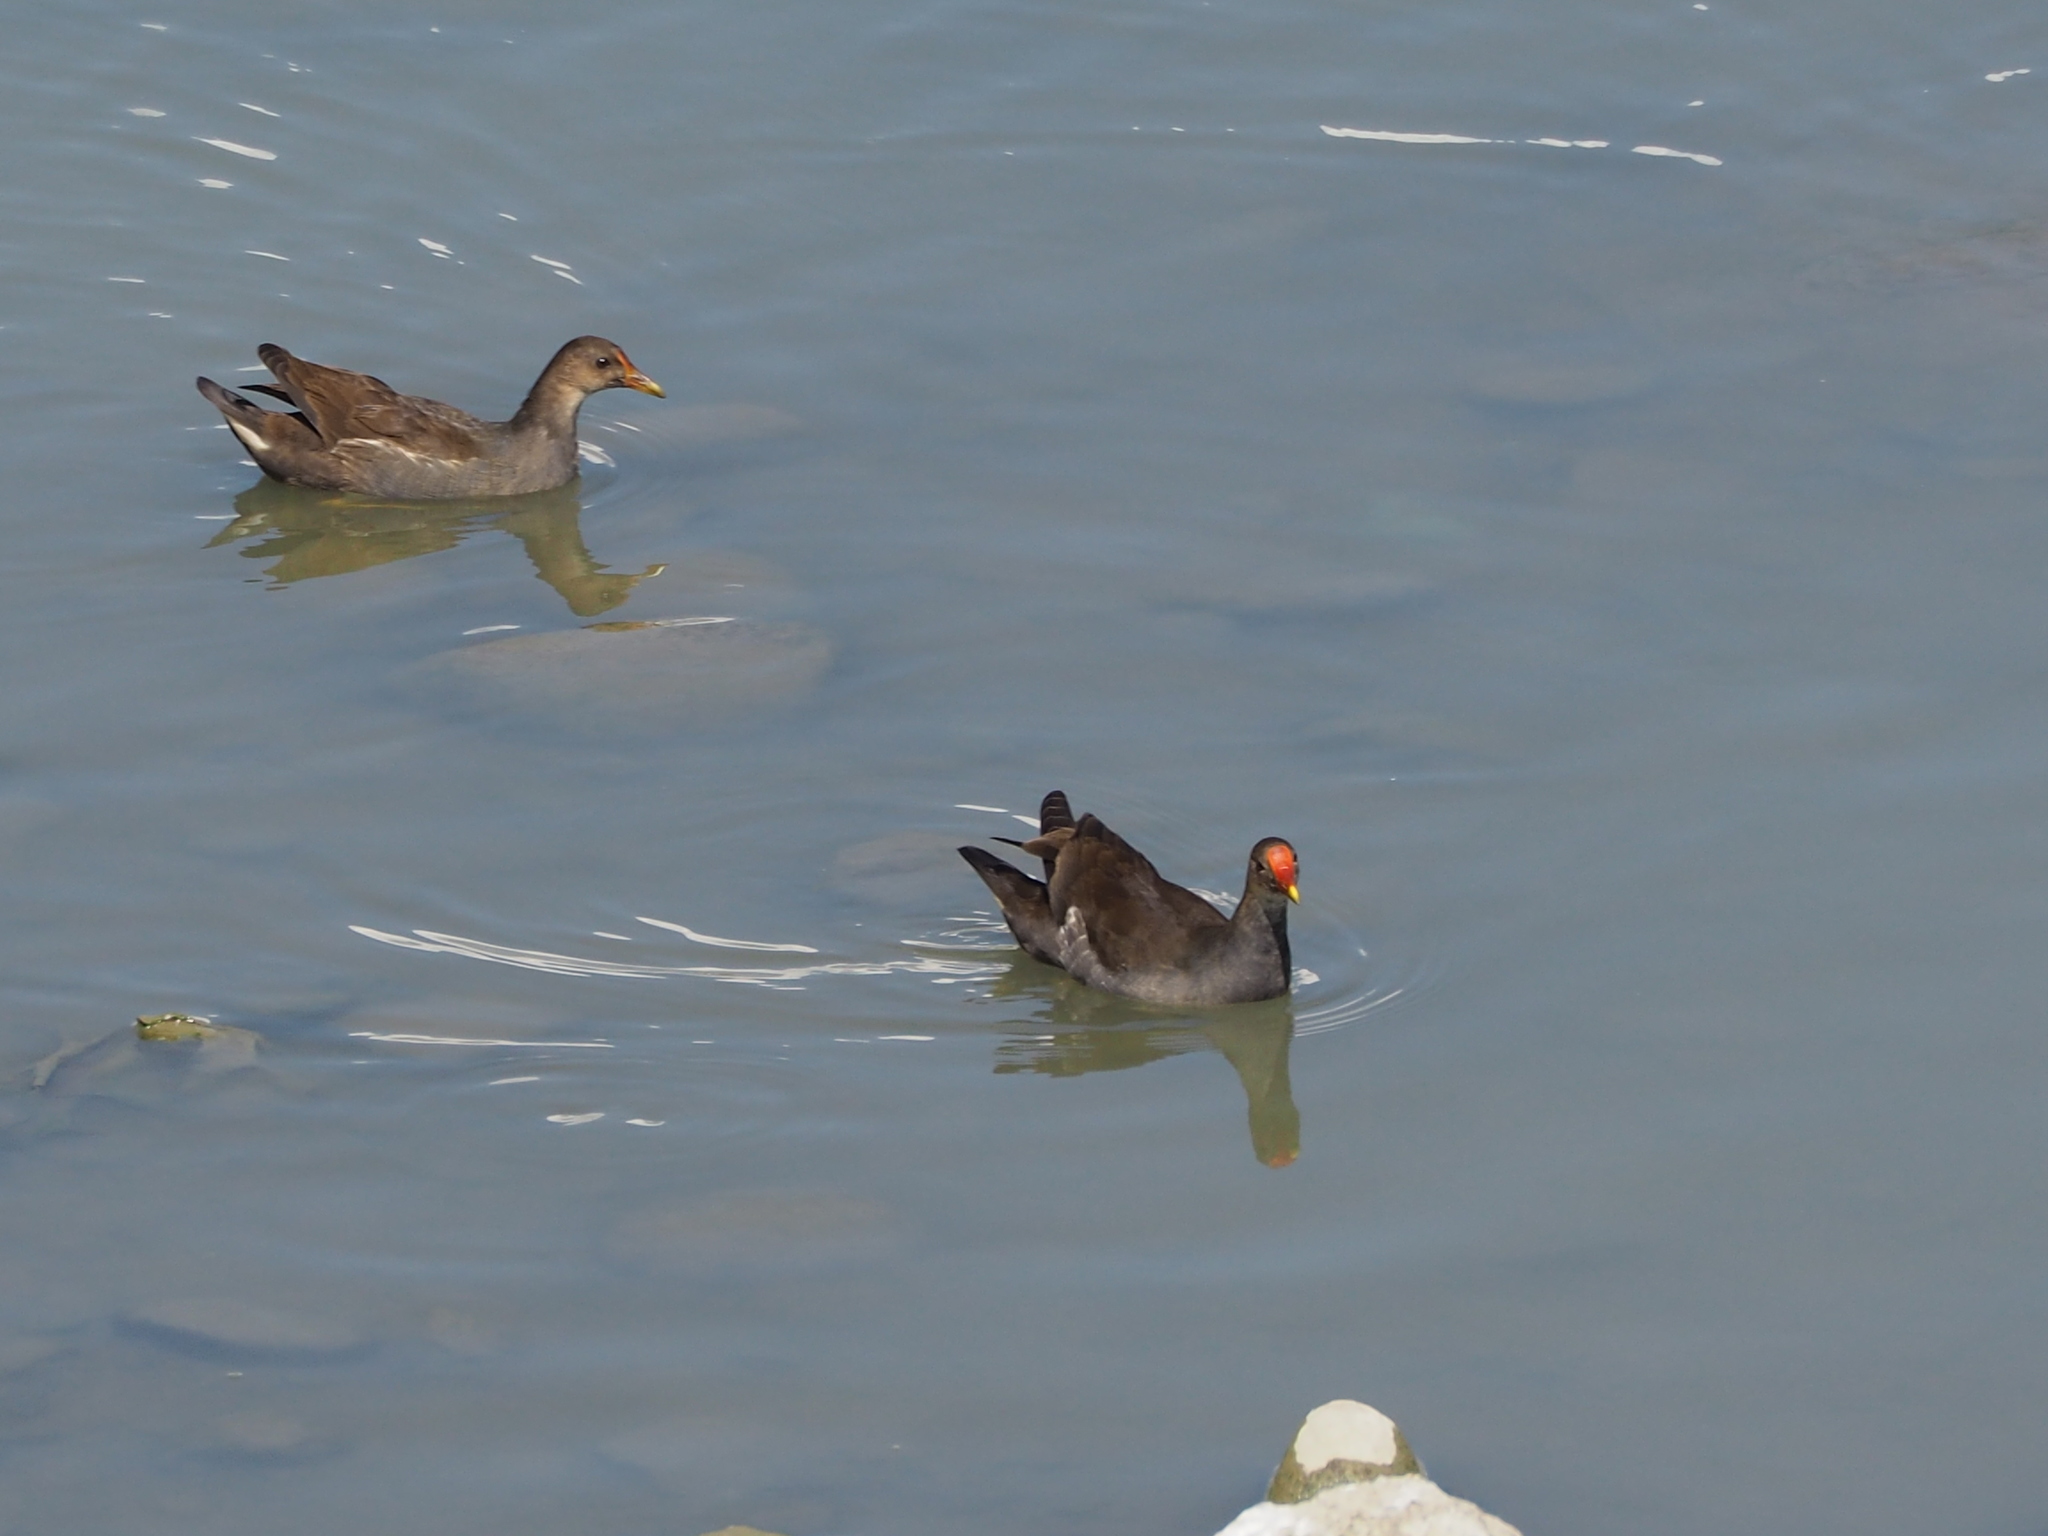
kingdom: Animalia
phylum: Chordata
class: Aves
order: Gruiformes
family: Rallidae
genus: Gallinula
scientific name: Gallinula chloropus
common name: Common moorhen
